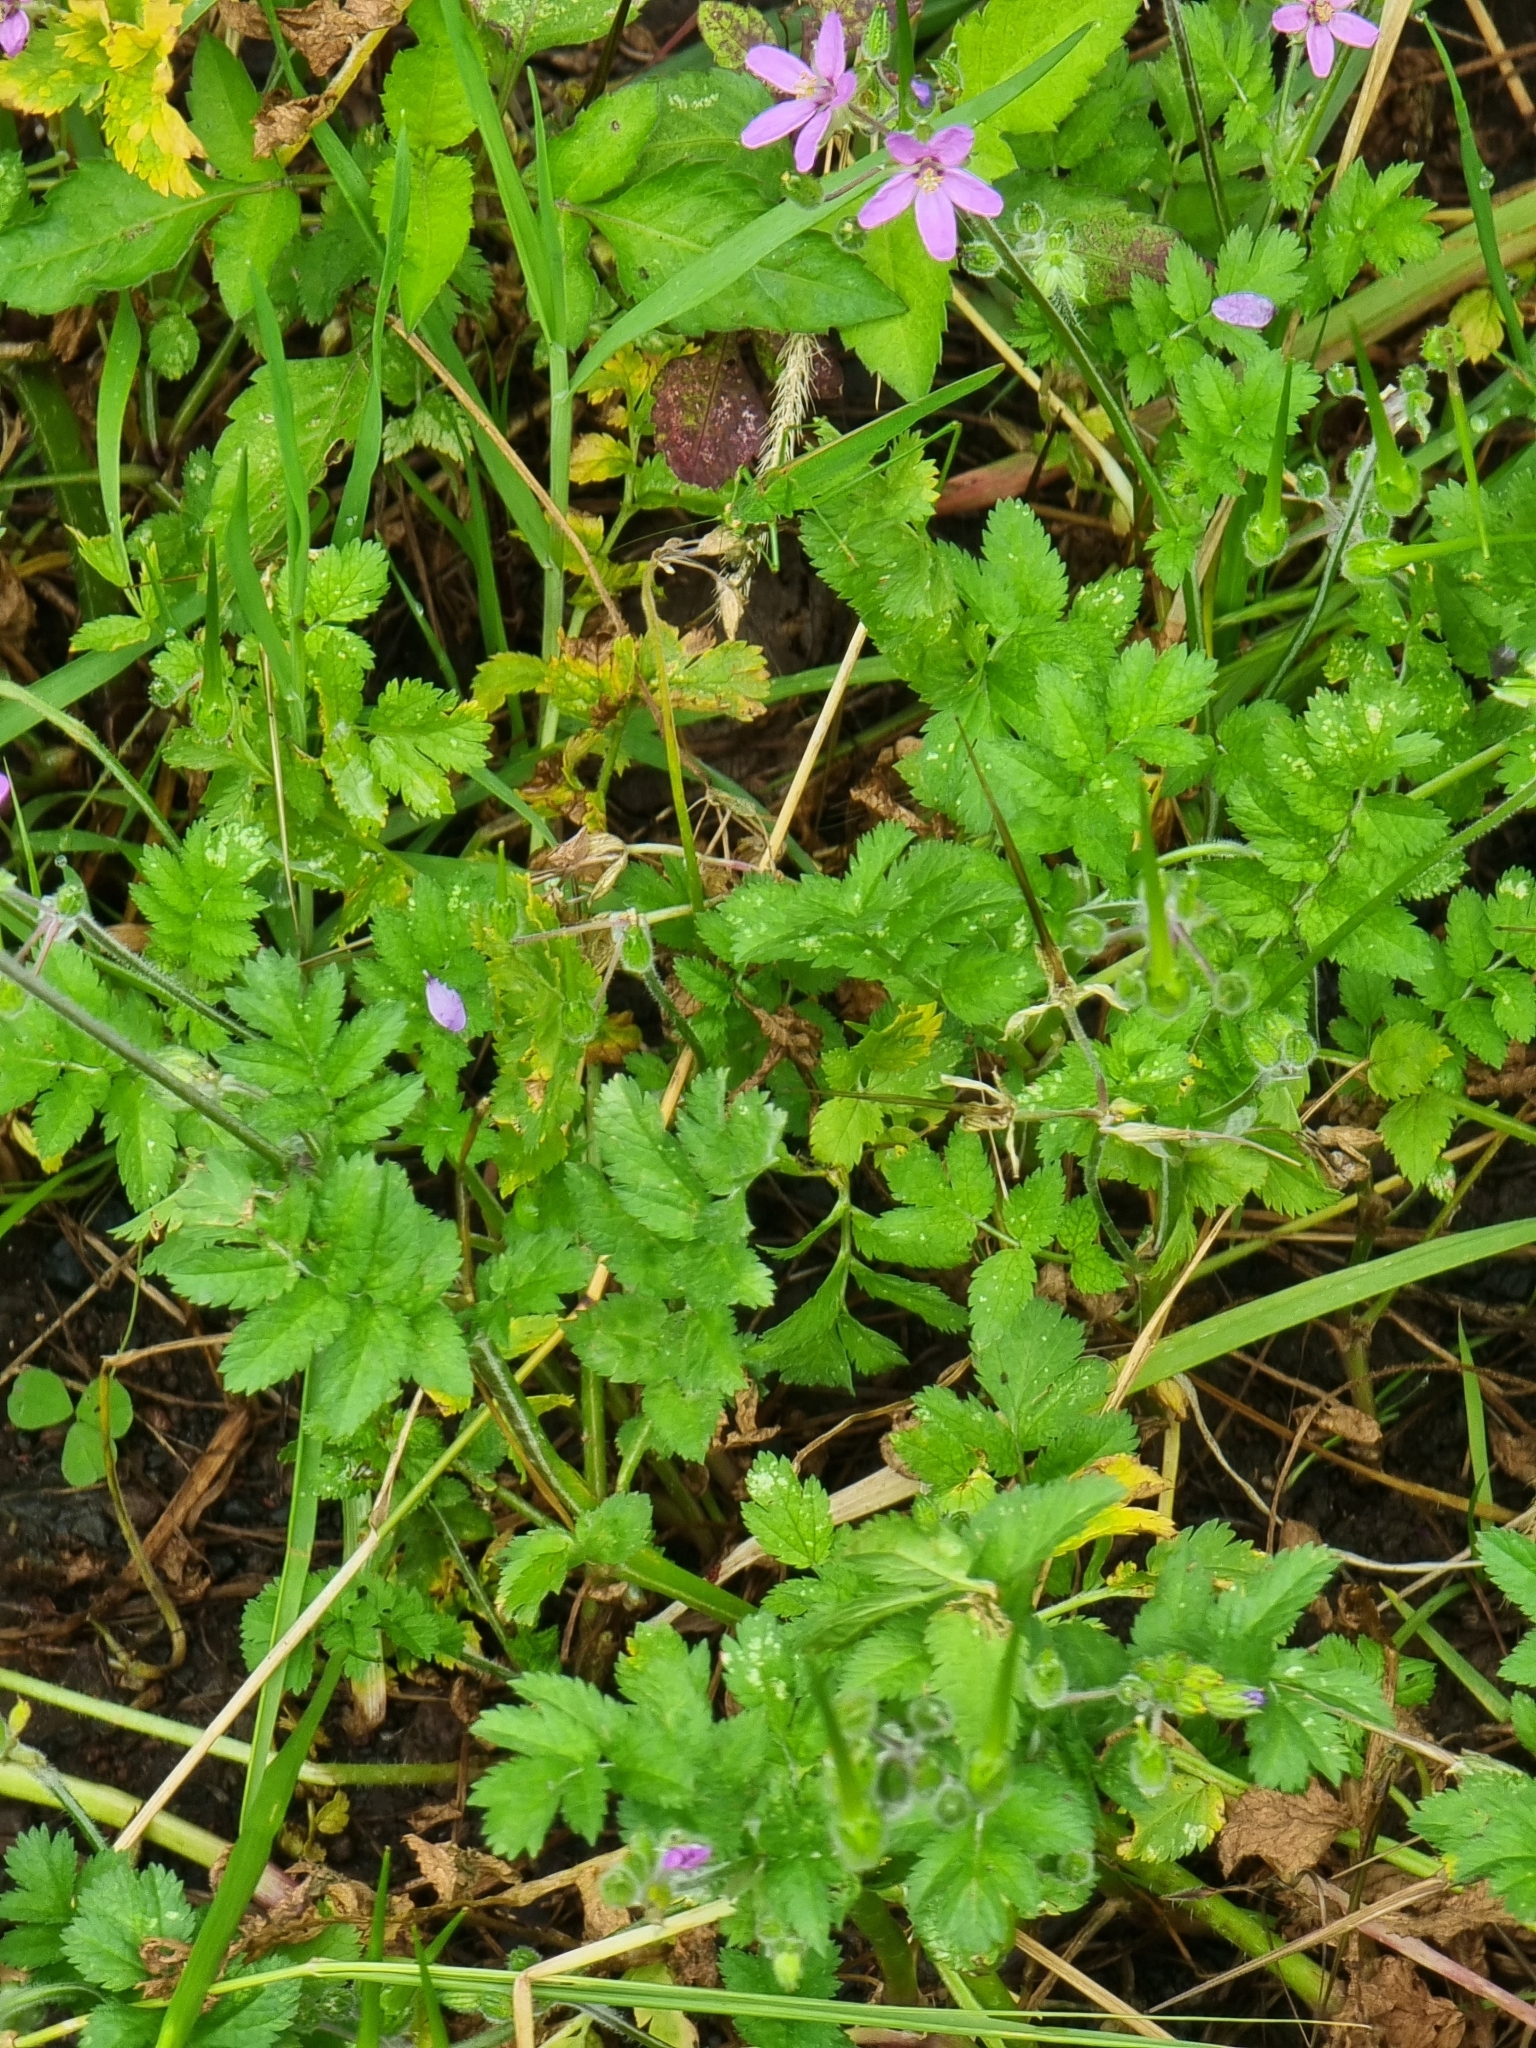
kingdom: Plantae
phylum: Tracheophyta
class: Magnoliopsida
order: Geraniales
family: Geraniaceae
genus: Erodium
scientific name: Erodium moschatum
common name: Musk stork's-bill
